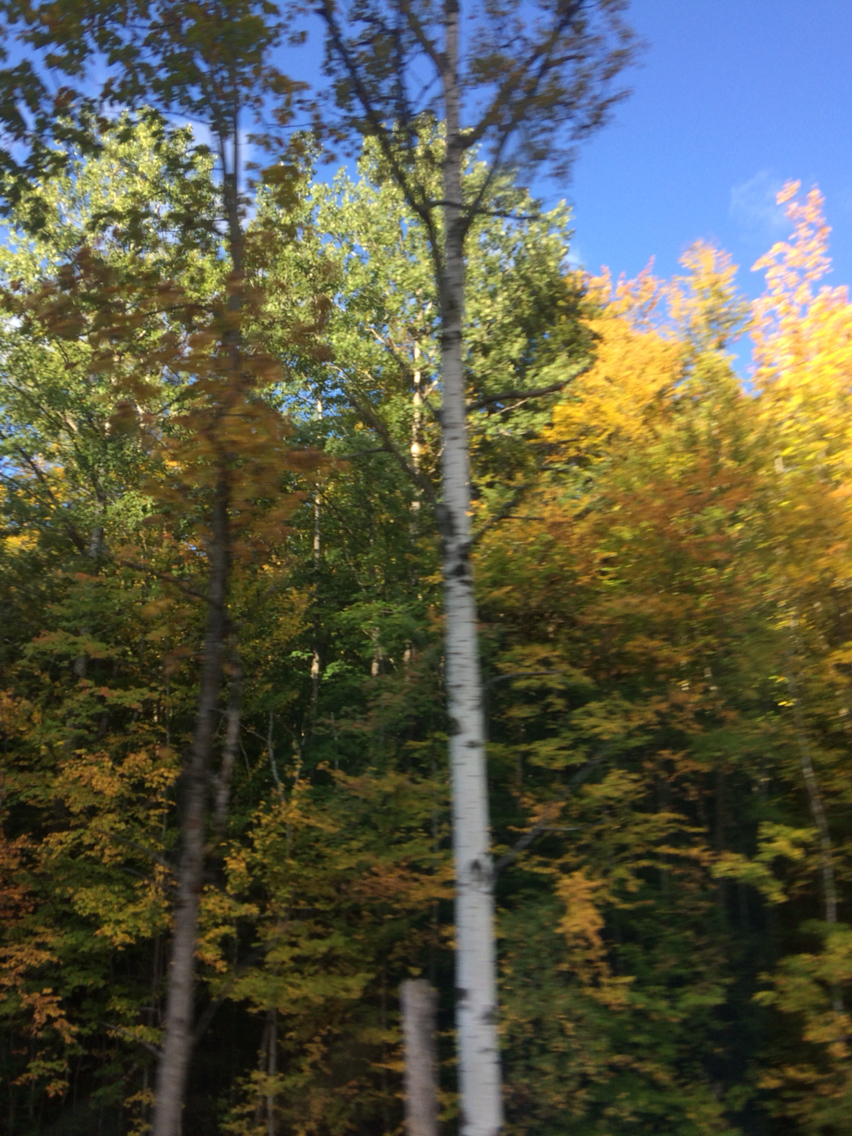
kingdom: Plantae
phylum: Tracheophyta
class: Magnoliopsida
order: Malpighiales
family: Salicaceae
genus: Populus
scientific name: Populus tremuloides
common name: Quaking aspen
